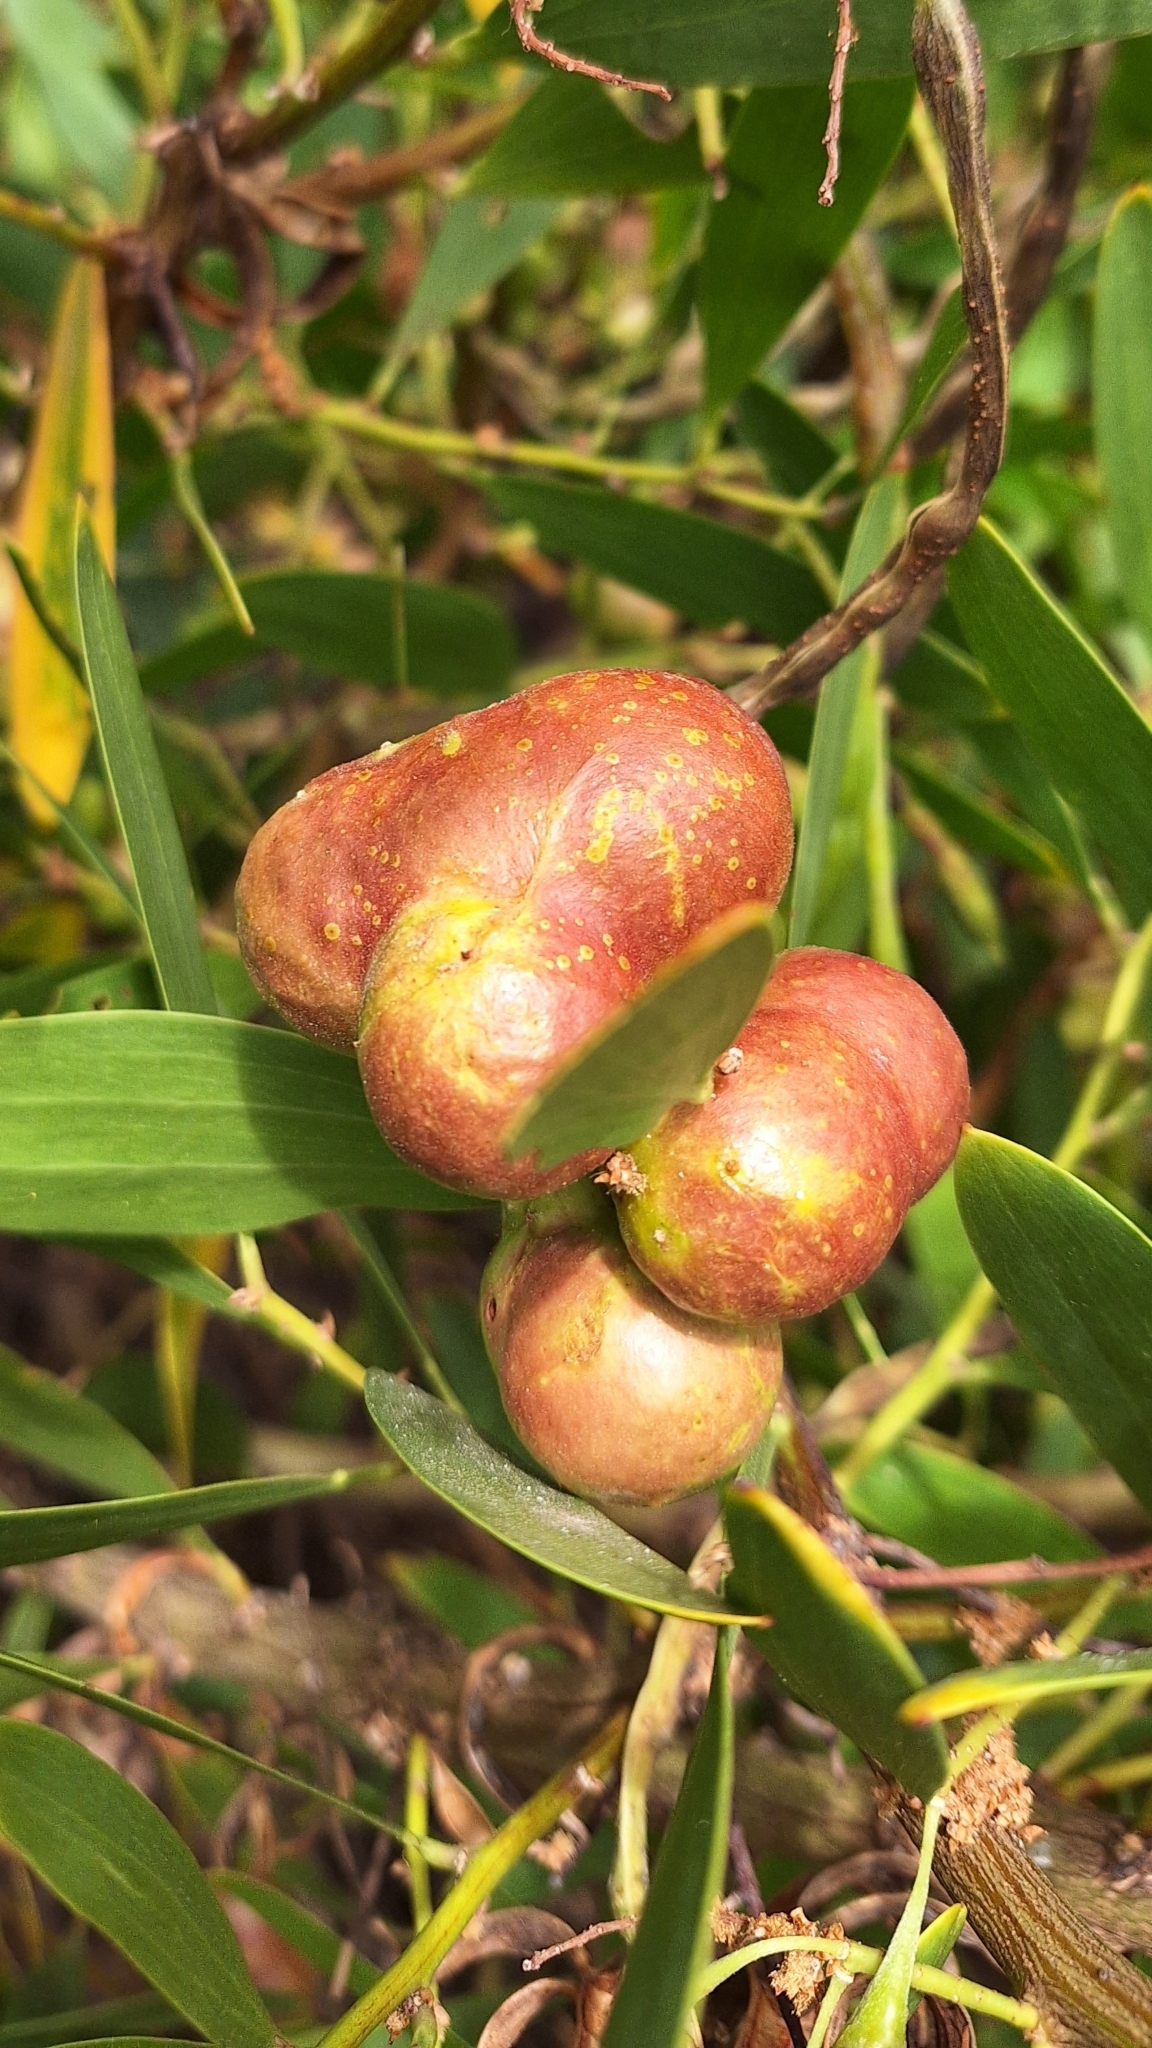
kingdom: Animalia
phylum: Arthropoda
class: Insecta
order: Hymenoptera
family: Pteromalidae
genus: Trichilogaster
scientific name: Trichilogaster acaciaelongifoliae
